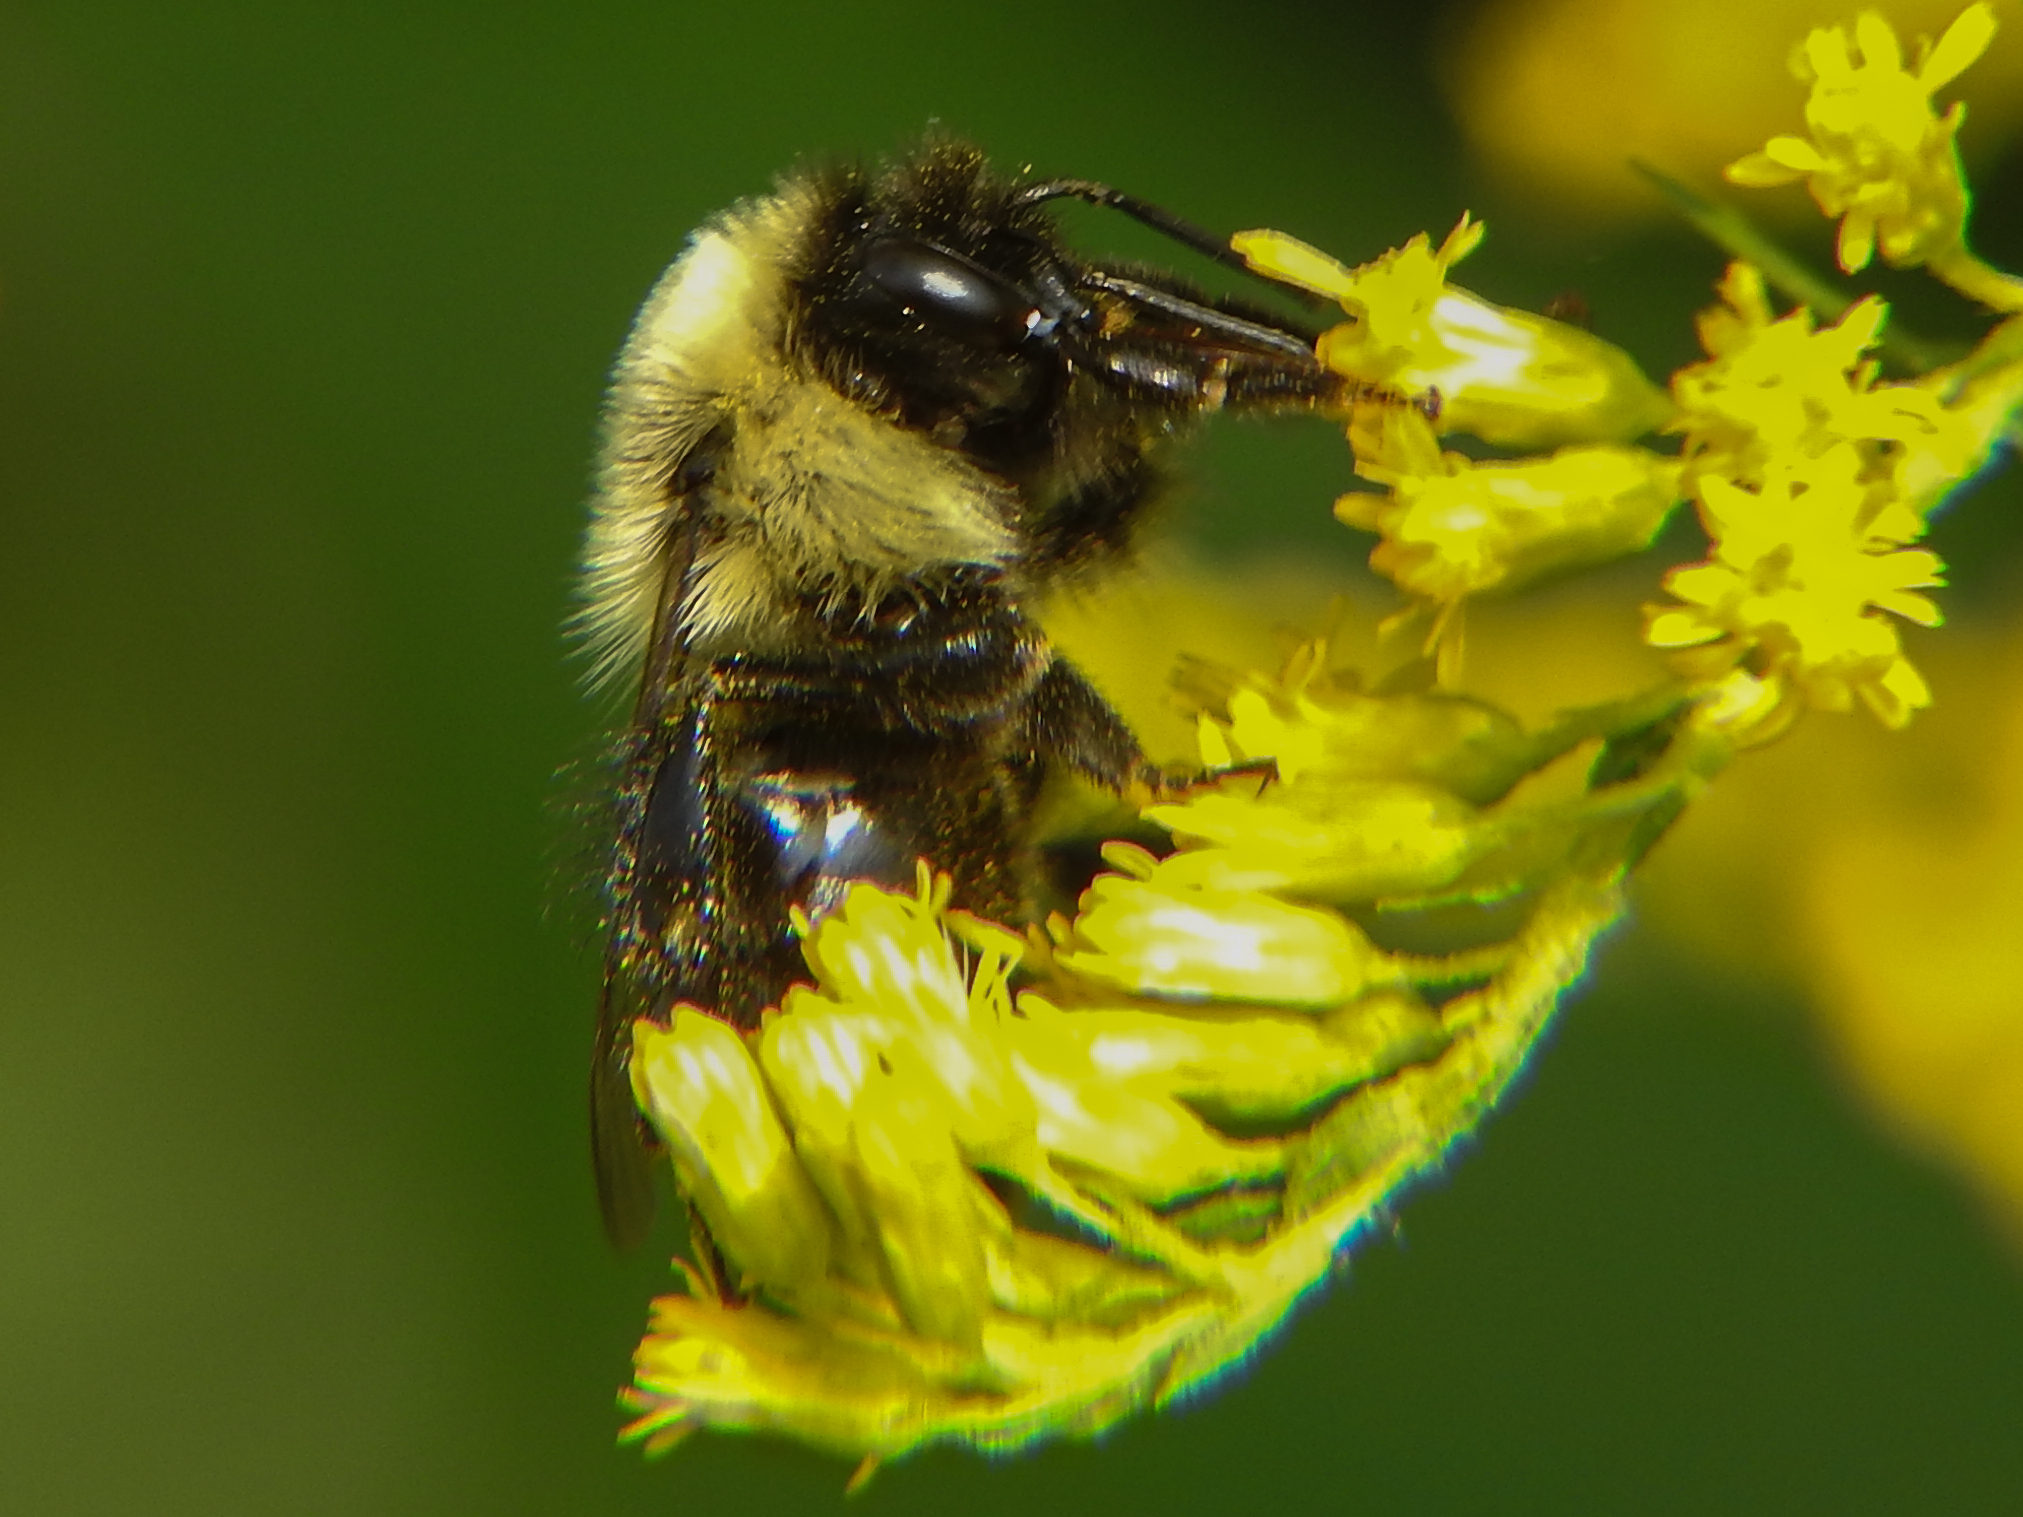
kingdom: Animalia
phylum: Arthropoda
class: Insecta
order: Hymenoptera
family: Apidae
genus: Bombus
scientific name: Bombus impatiens
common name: Common eastern bumble bee
